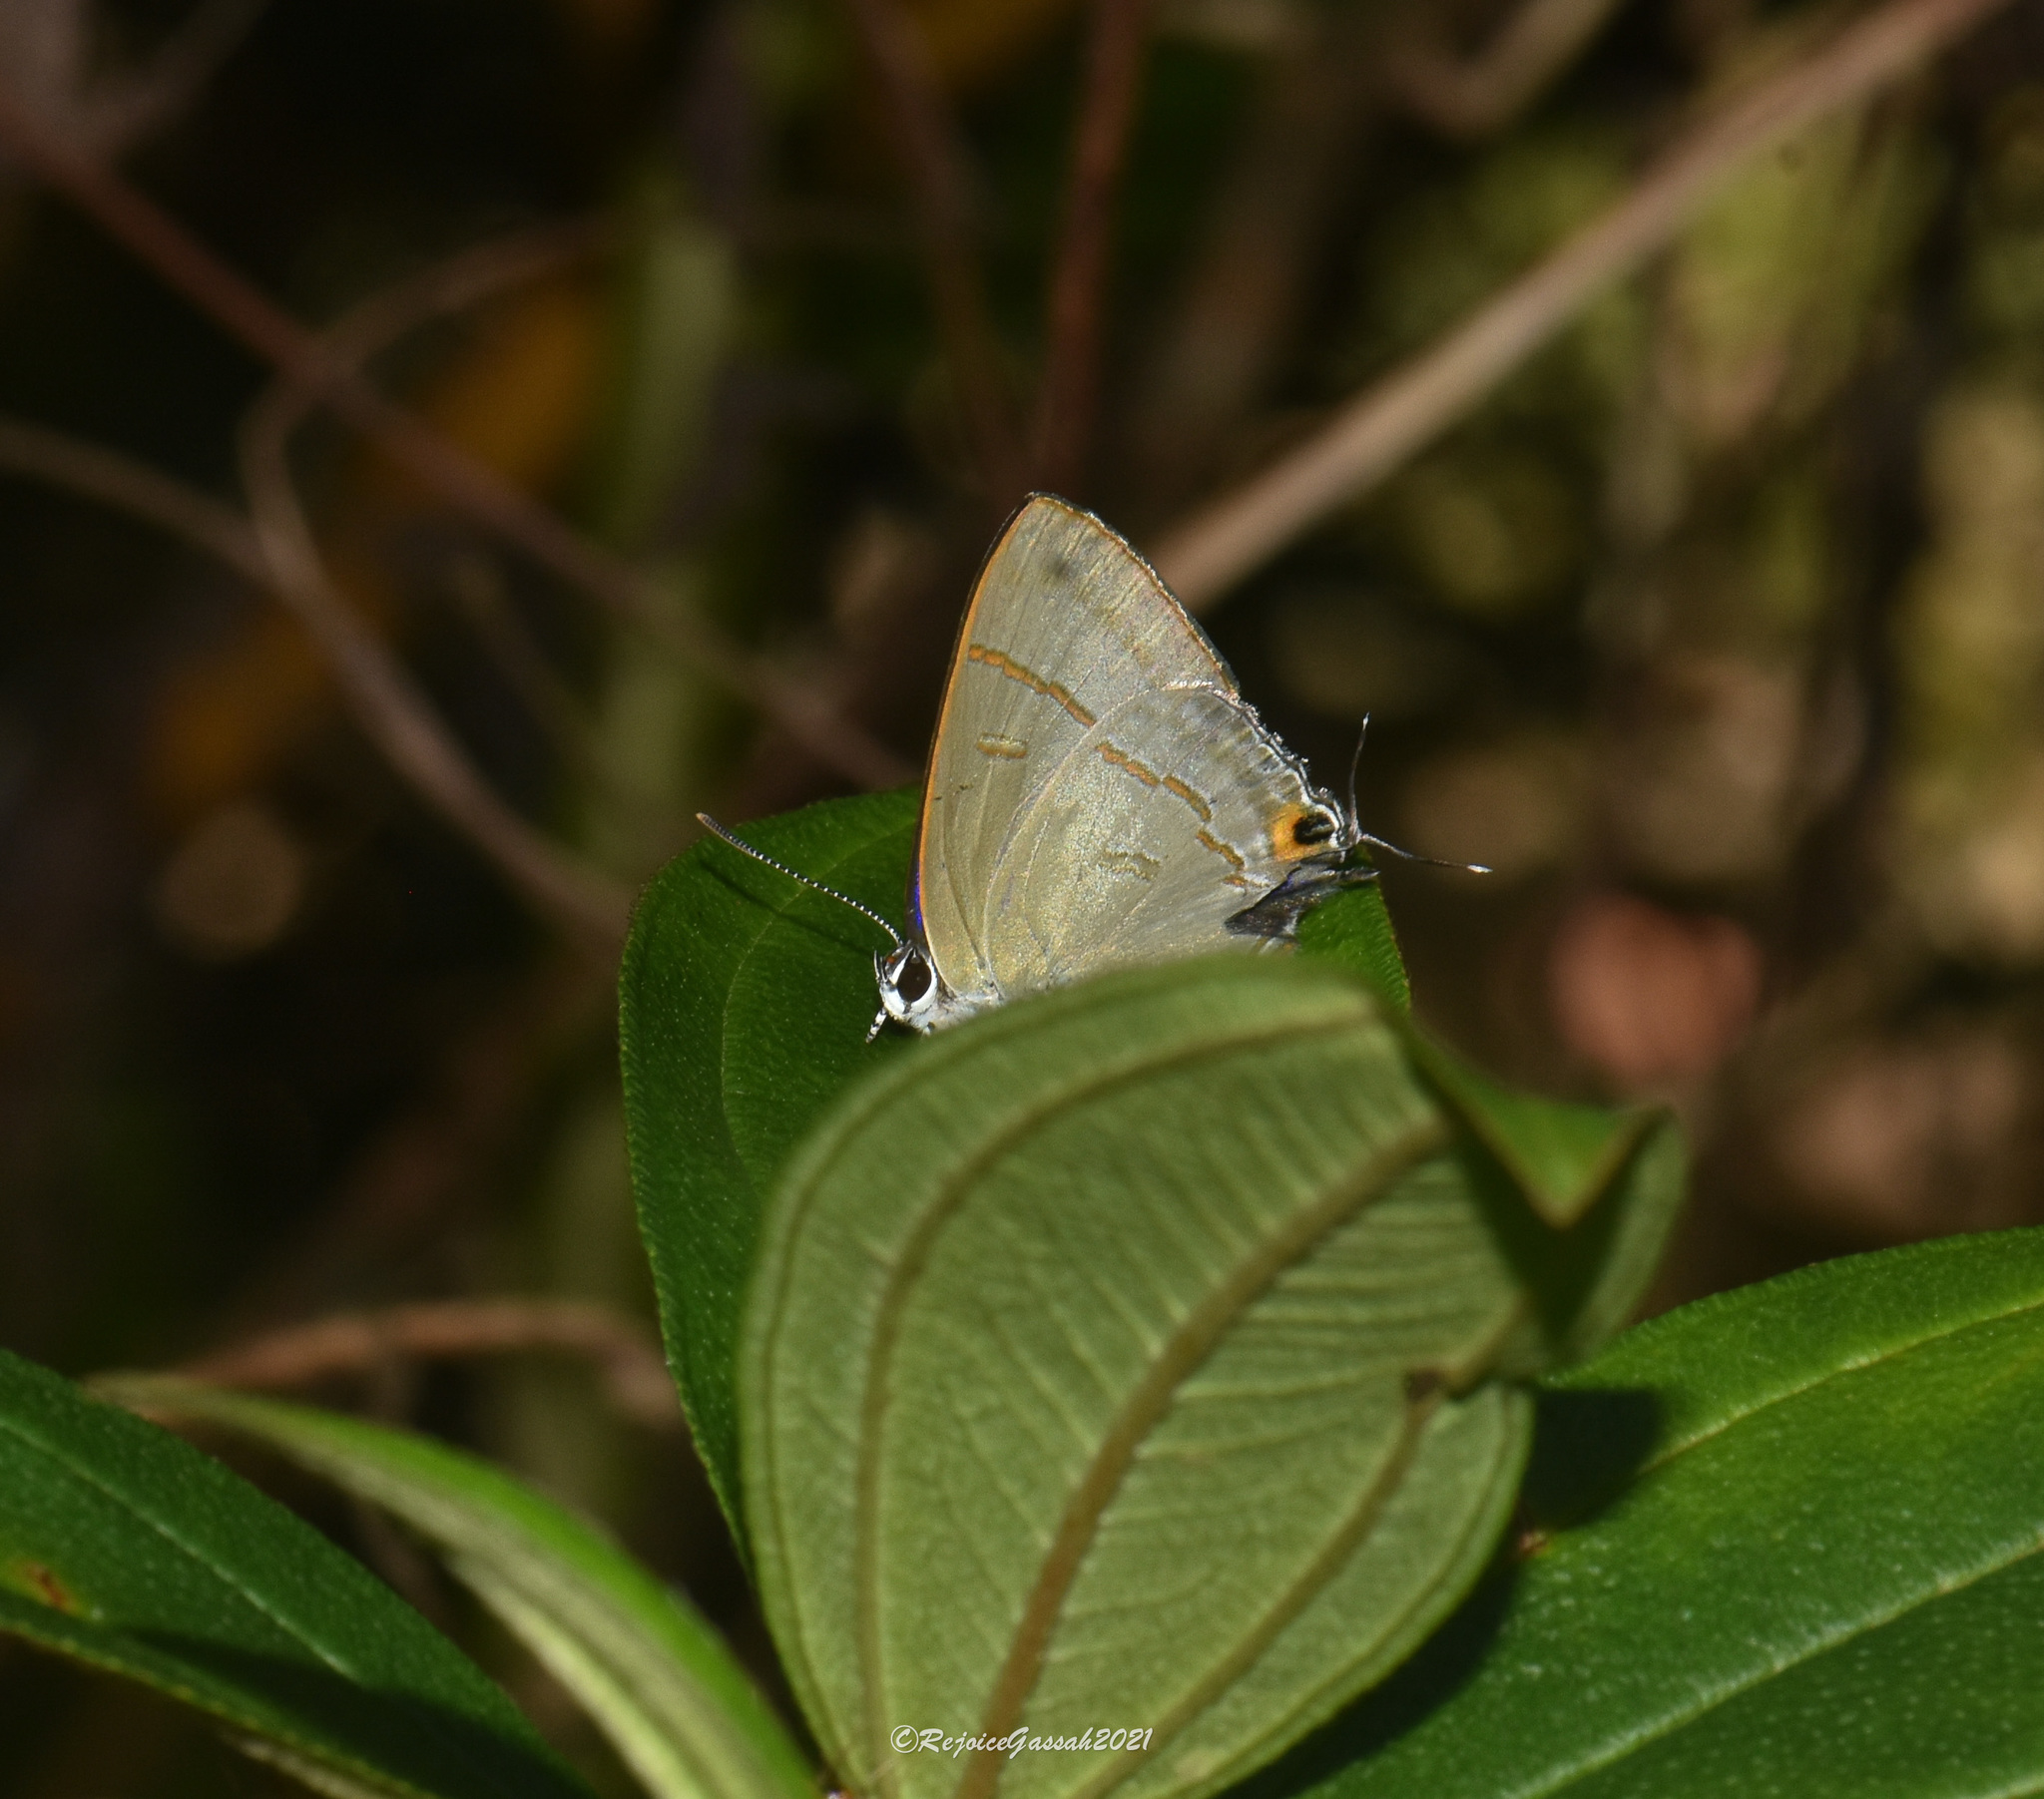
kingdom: Animalia
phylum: Arthropoda
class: Insecta
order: Lepidoptera
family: Lycaenidae
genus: Hypolycaena
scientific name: Hypolycaena erylus
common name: Common tit
